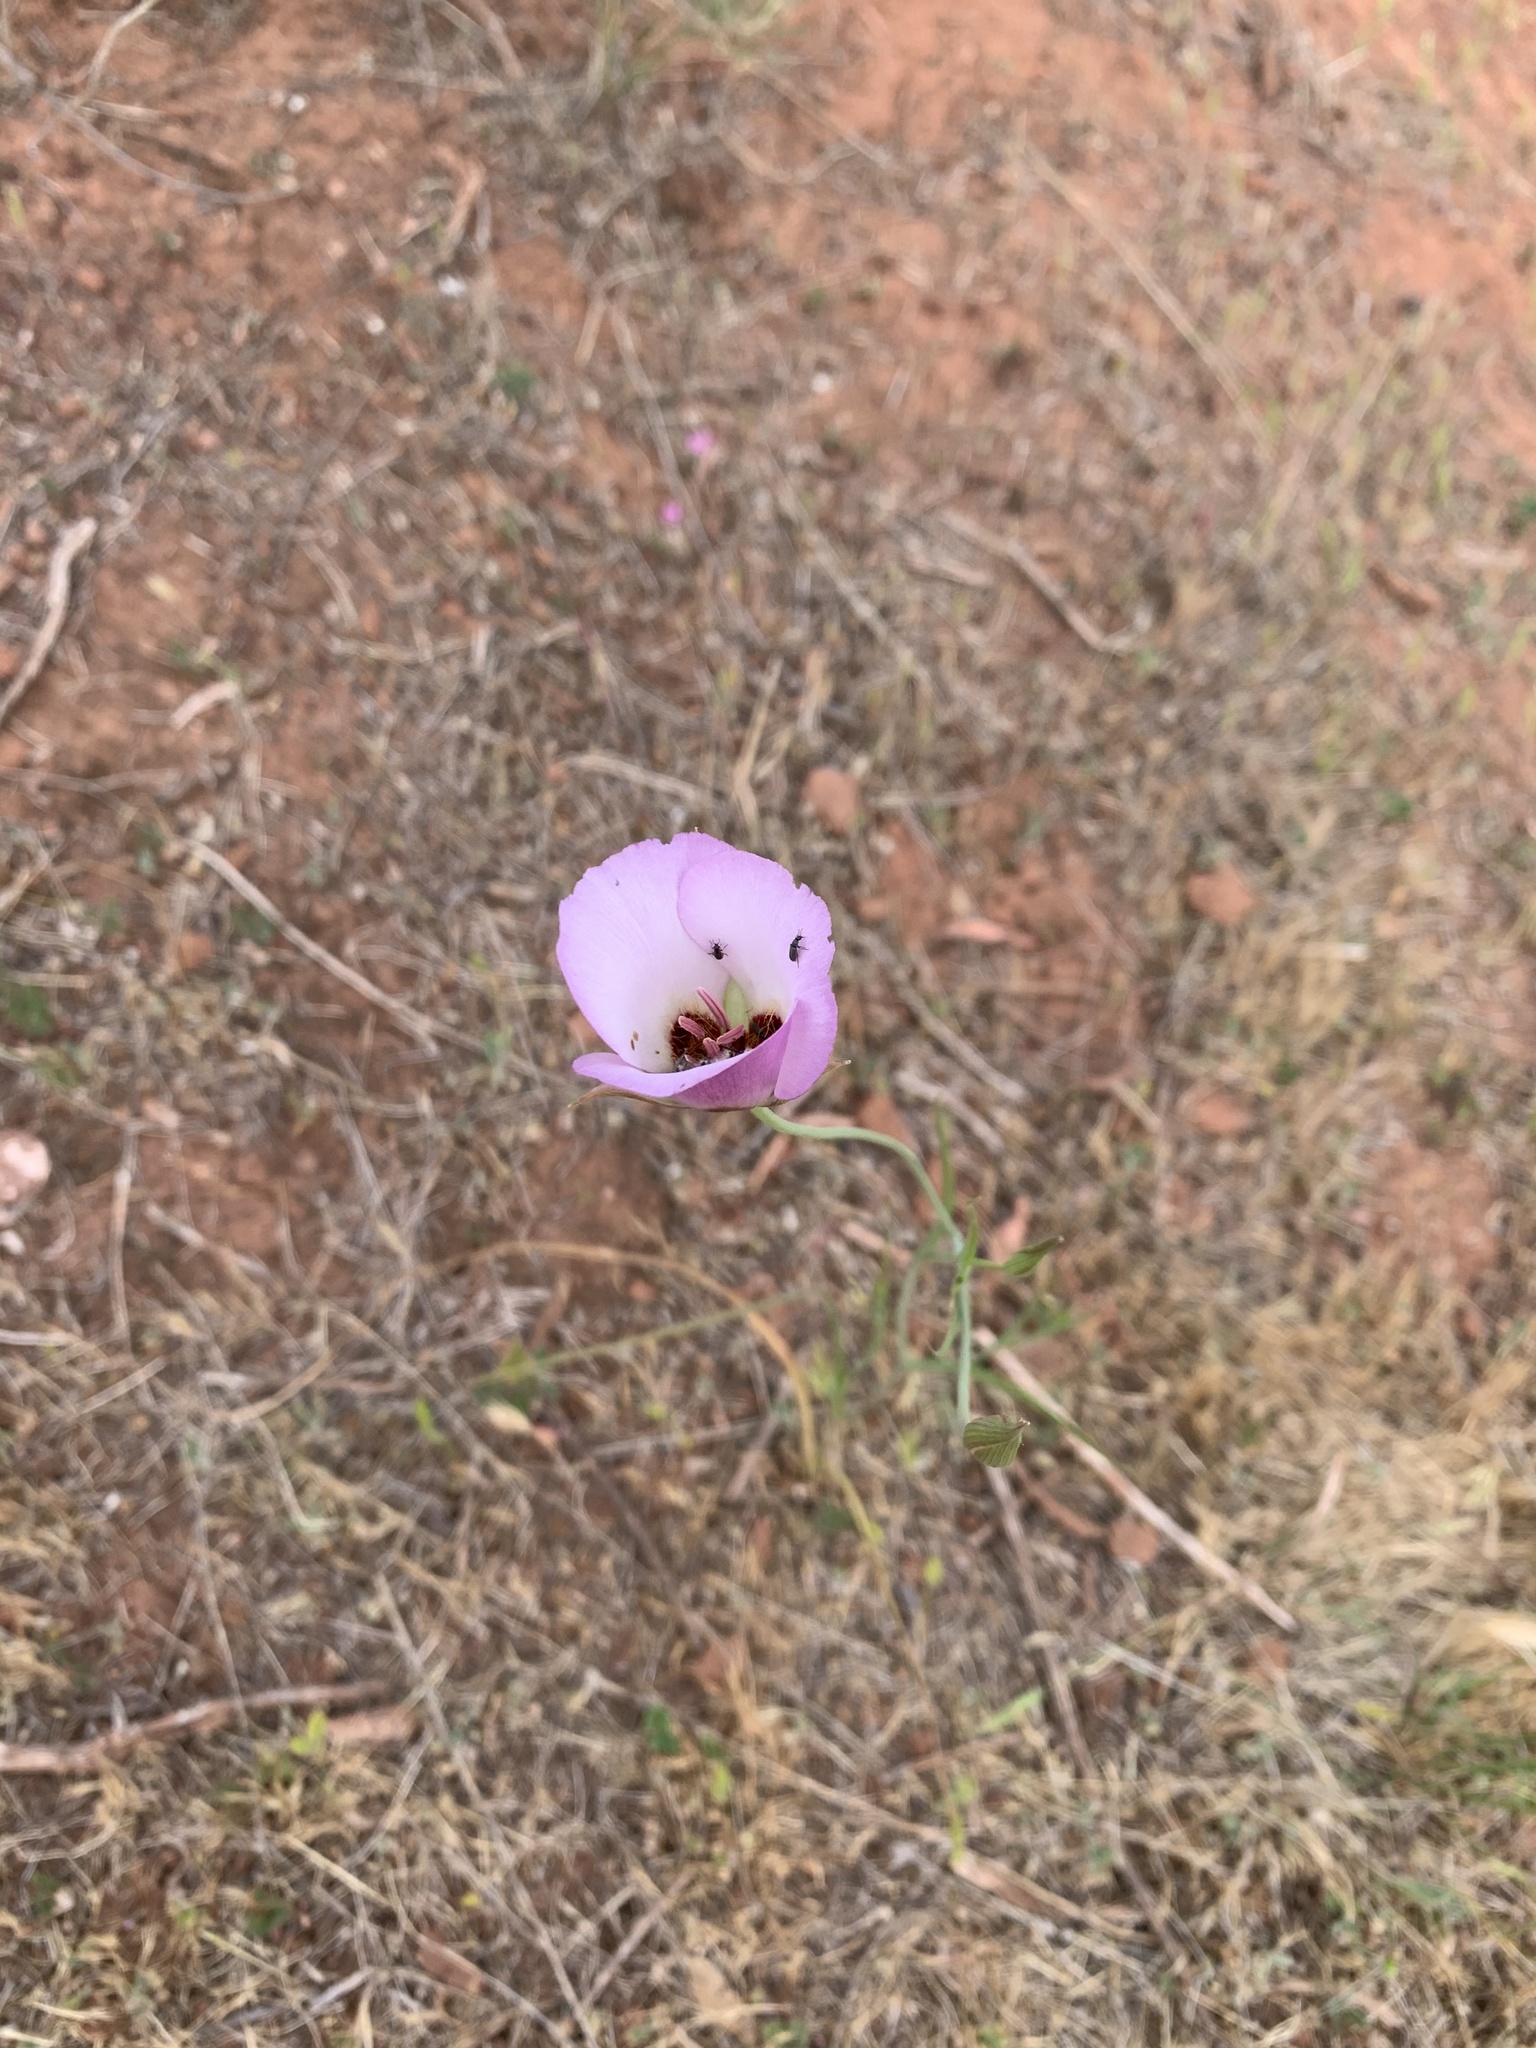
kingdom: Plantae
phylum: Tracheophyta
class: Liliopsida
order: Liliales
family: Liliaceae
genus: Calochortus
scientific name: Calochortus catalinae
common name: Catalina mariposa-lily
